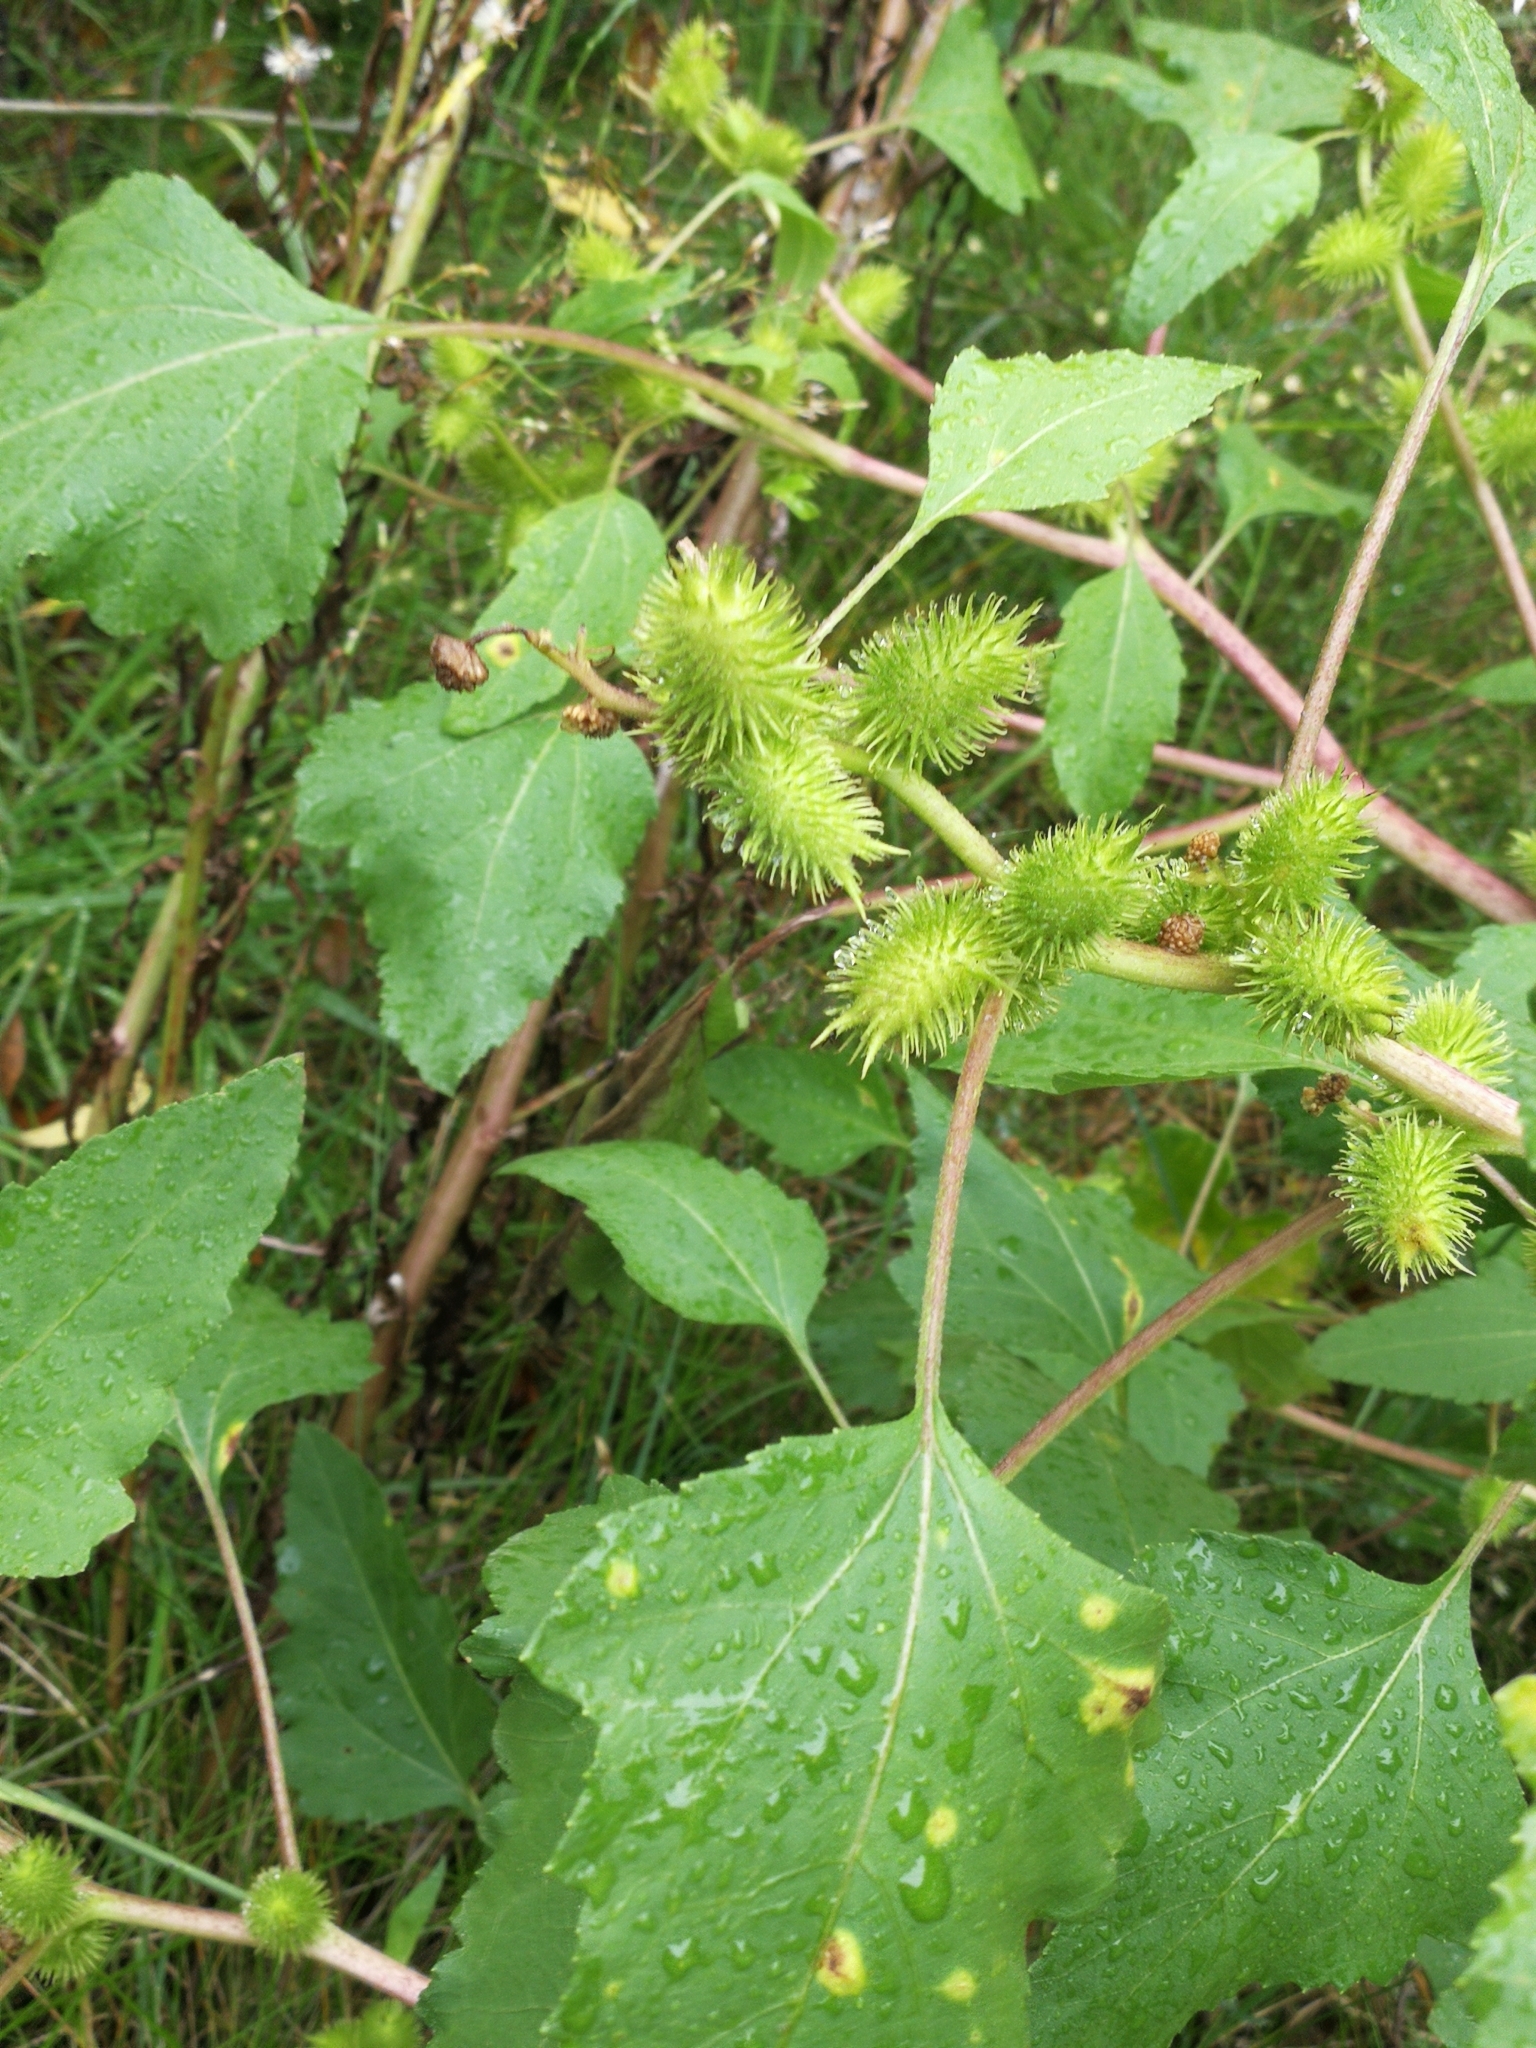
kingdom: Plantae
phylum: Tracheophyta
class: Magnoliopsida
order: Asterales
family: Asteraceae
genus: Xanthium
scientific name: Xanthium strumarium
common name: Rough cocklebur
